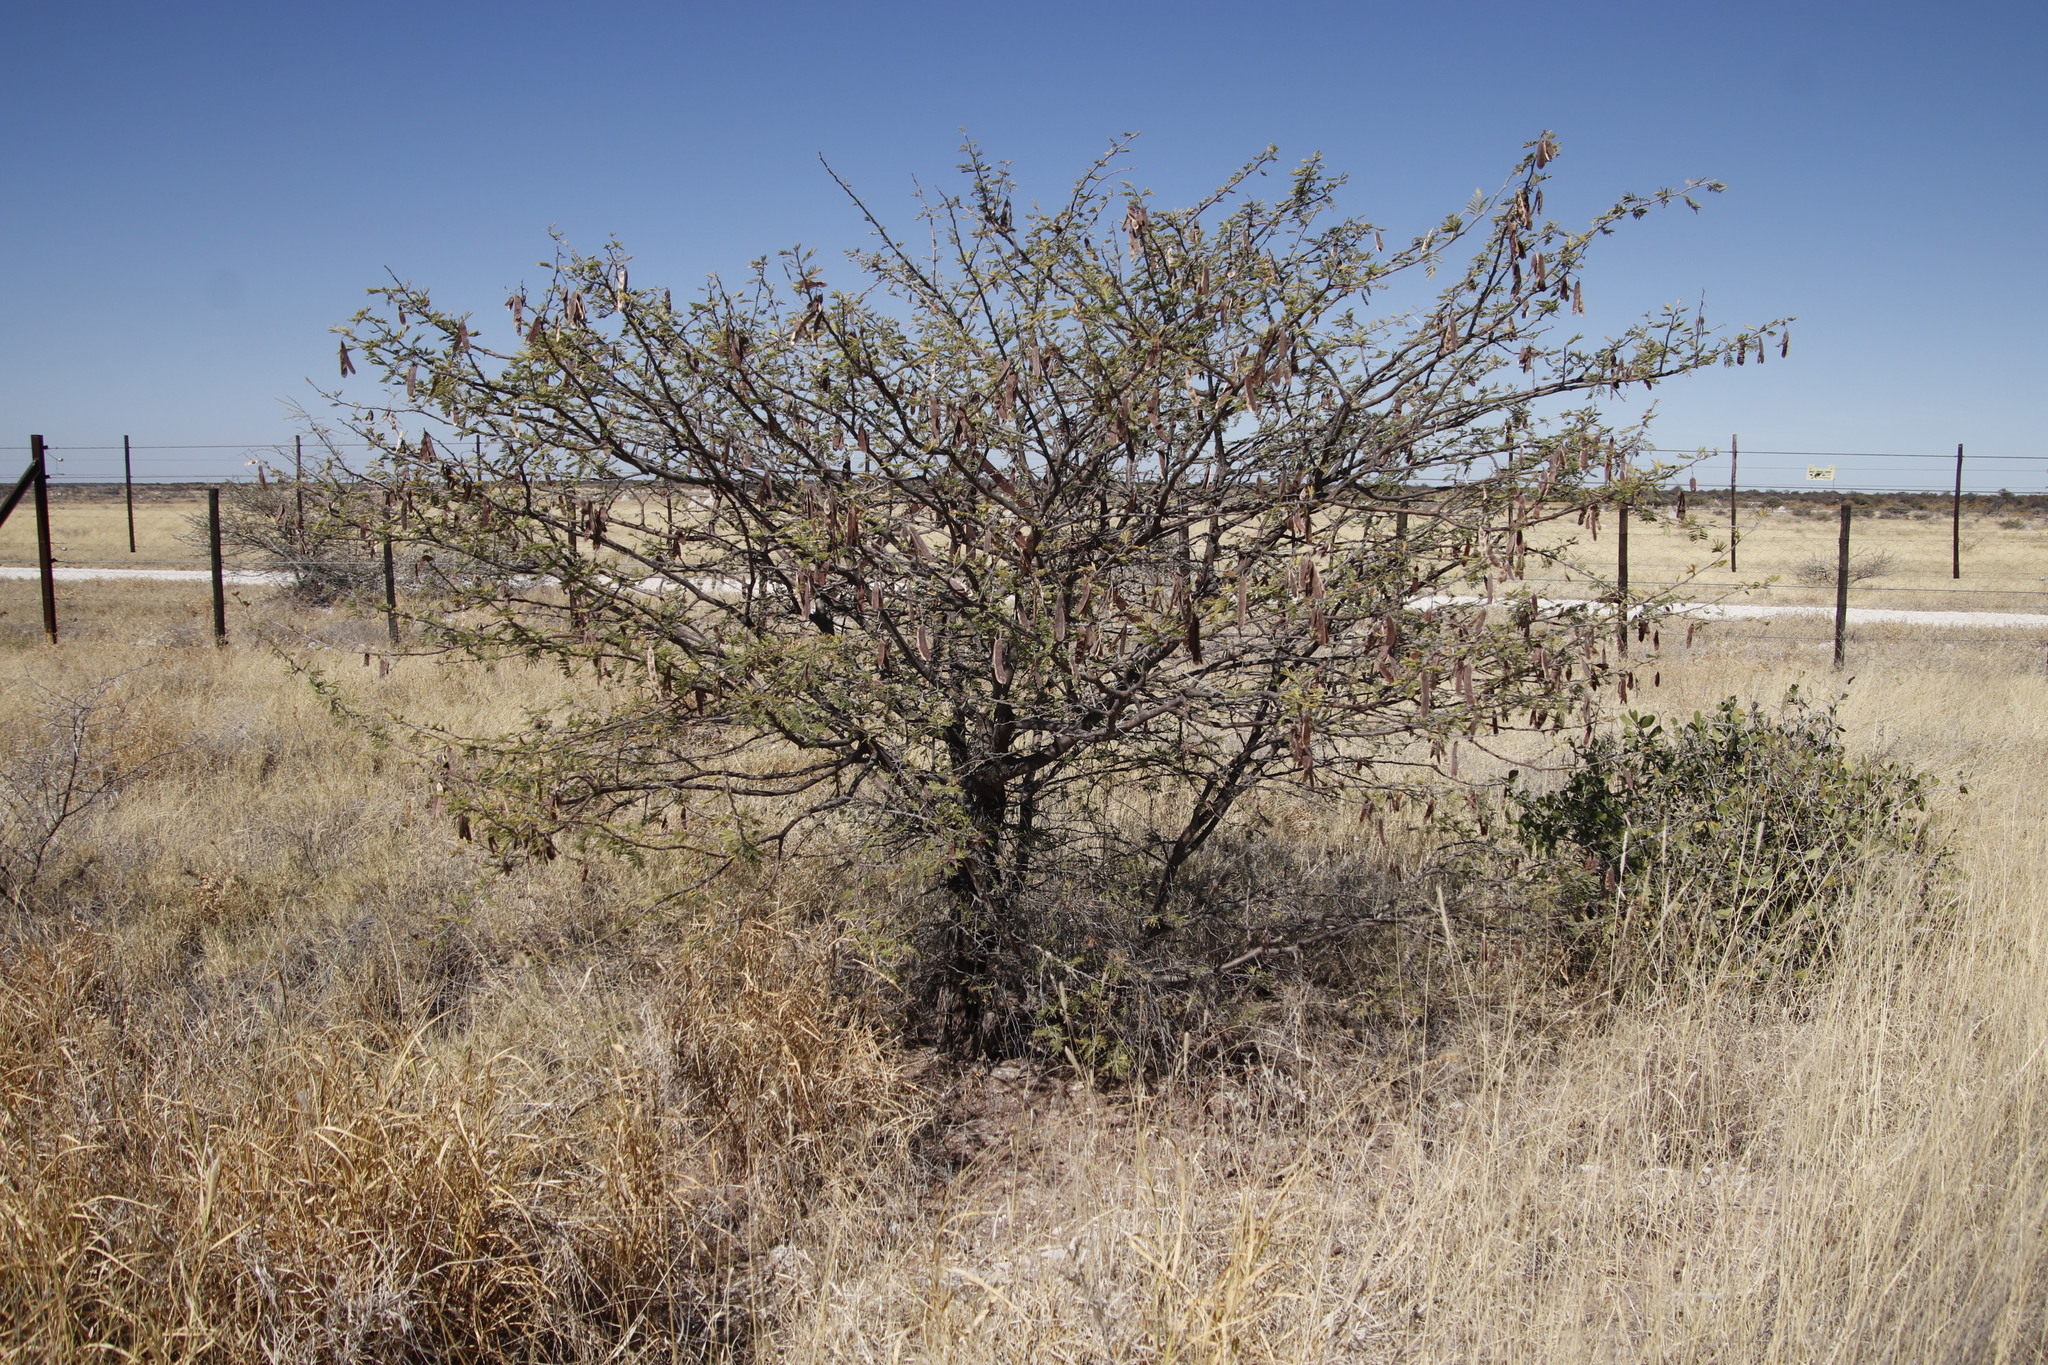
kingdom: Plantae
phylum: Tracheophyta
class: Magnoliopsida
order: Fabales
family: Fabaceae
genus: Vachellia
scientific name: Vachellia luederitzii
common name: Bastard umbrella thorn
